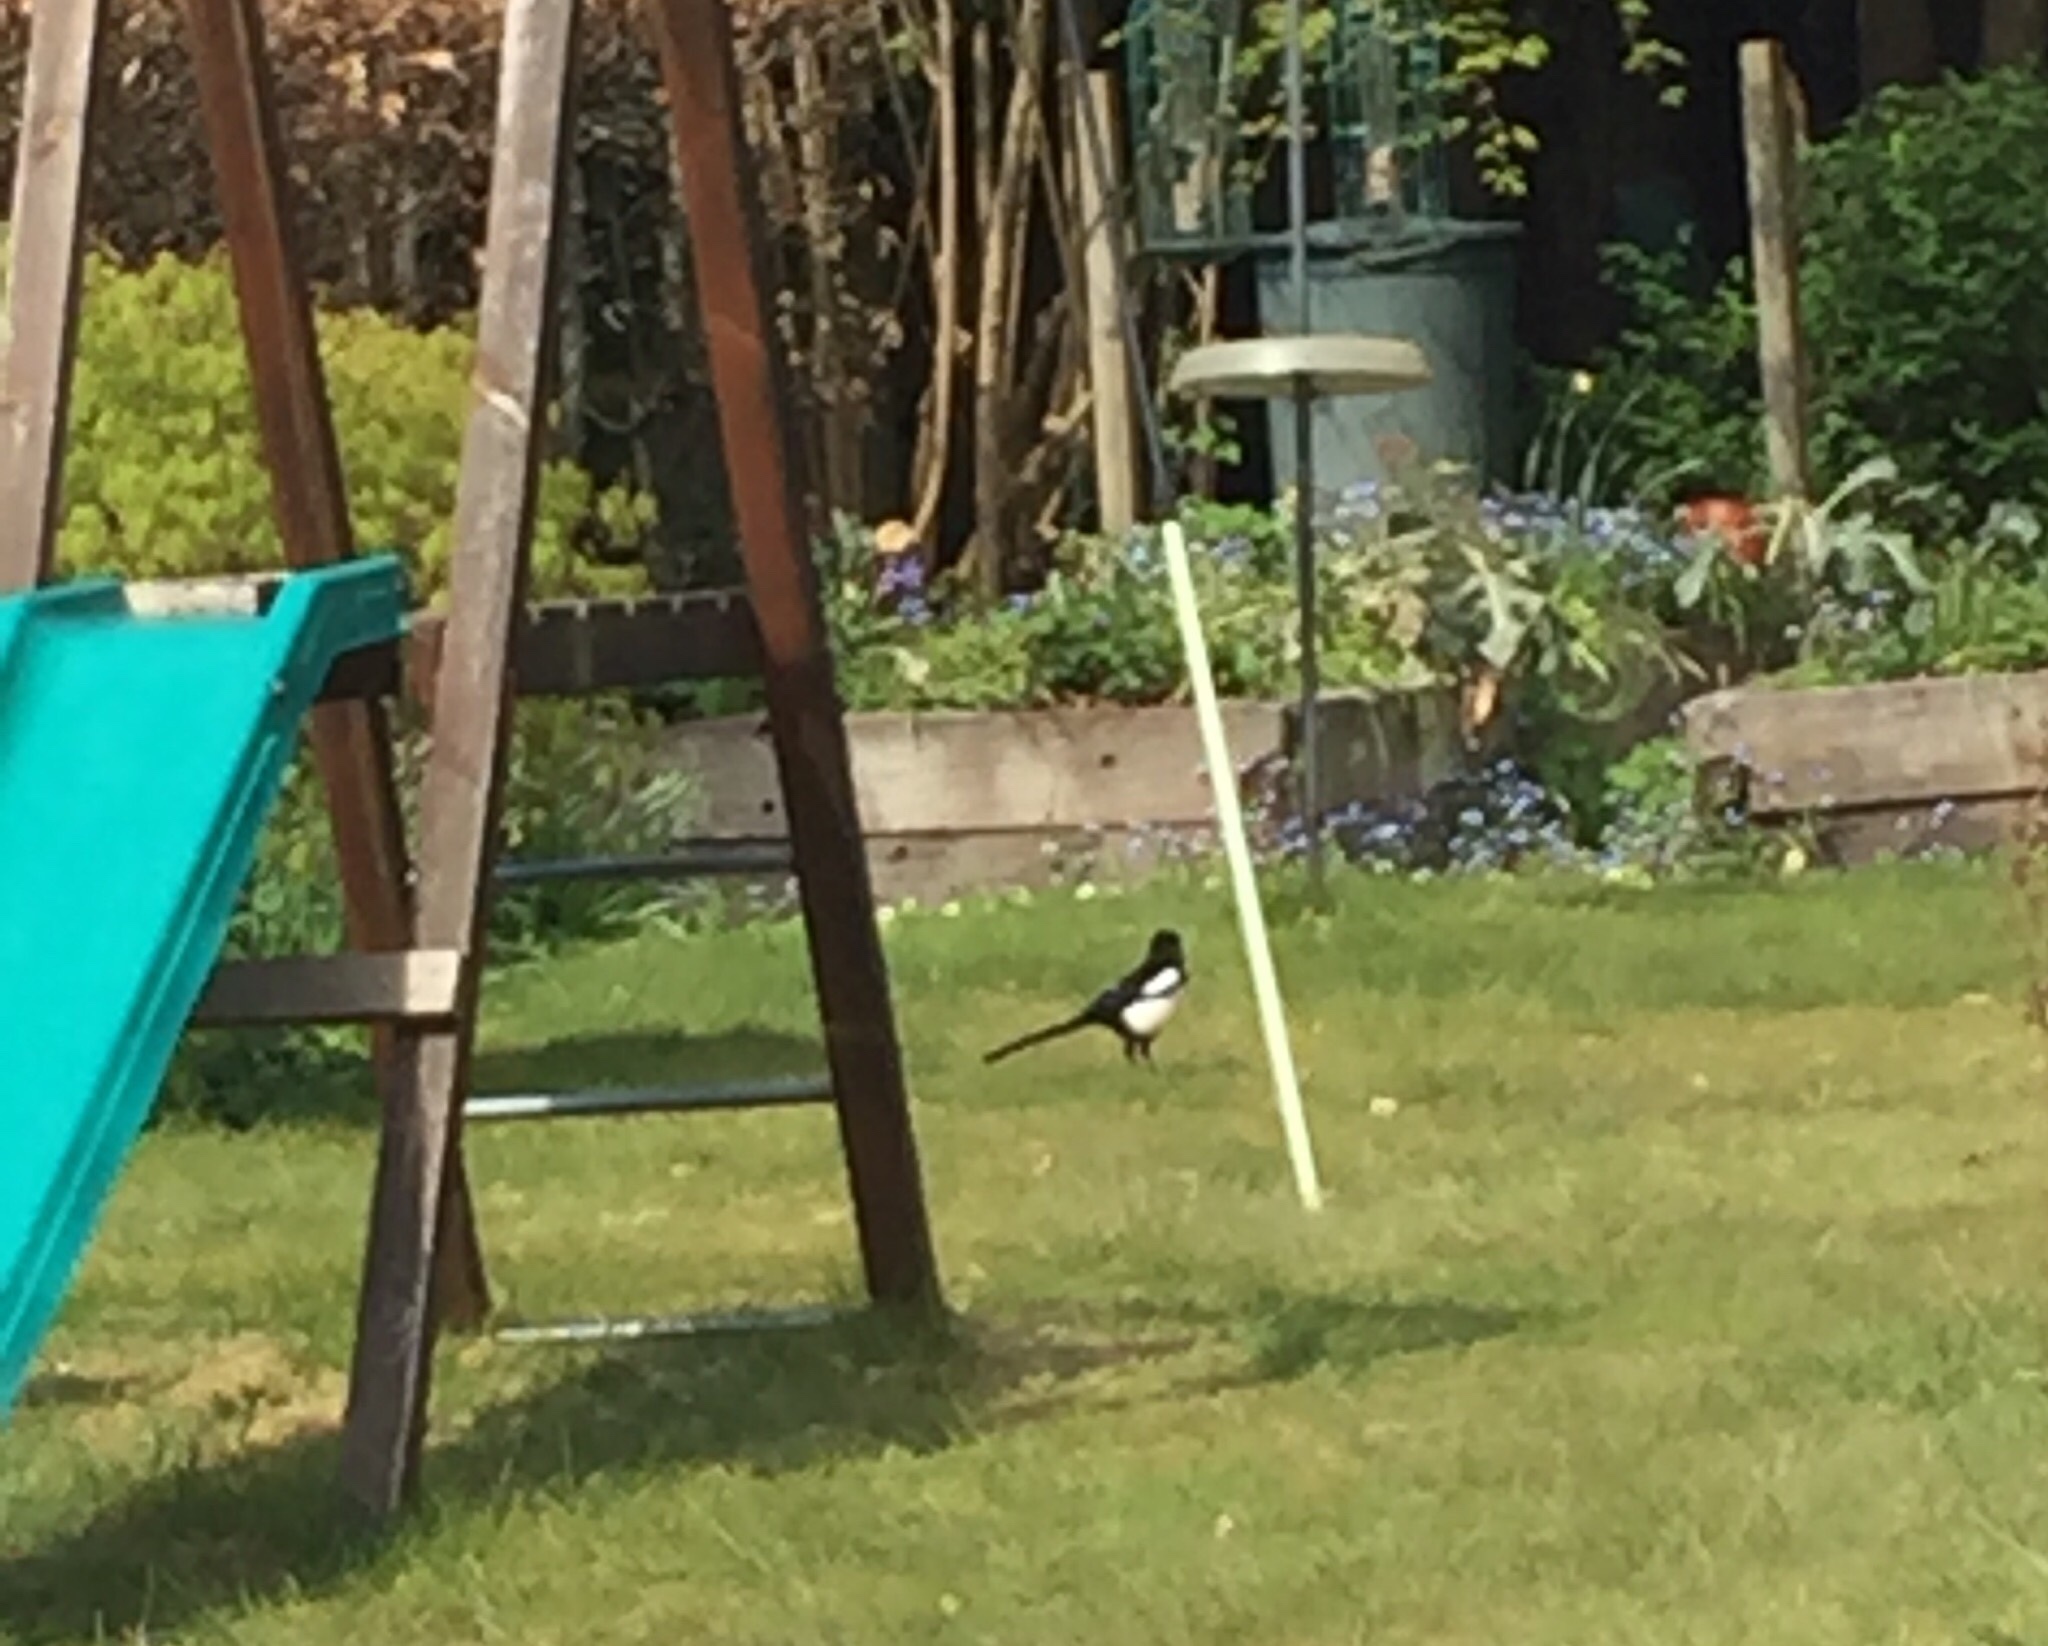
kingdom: Animalia
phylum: Chordata
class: Aves
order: Passeriformes
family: Corvidae
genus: Pica
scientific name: Pica pica
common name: Eurasian magpie
